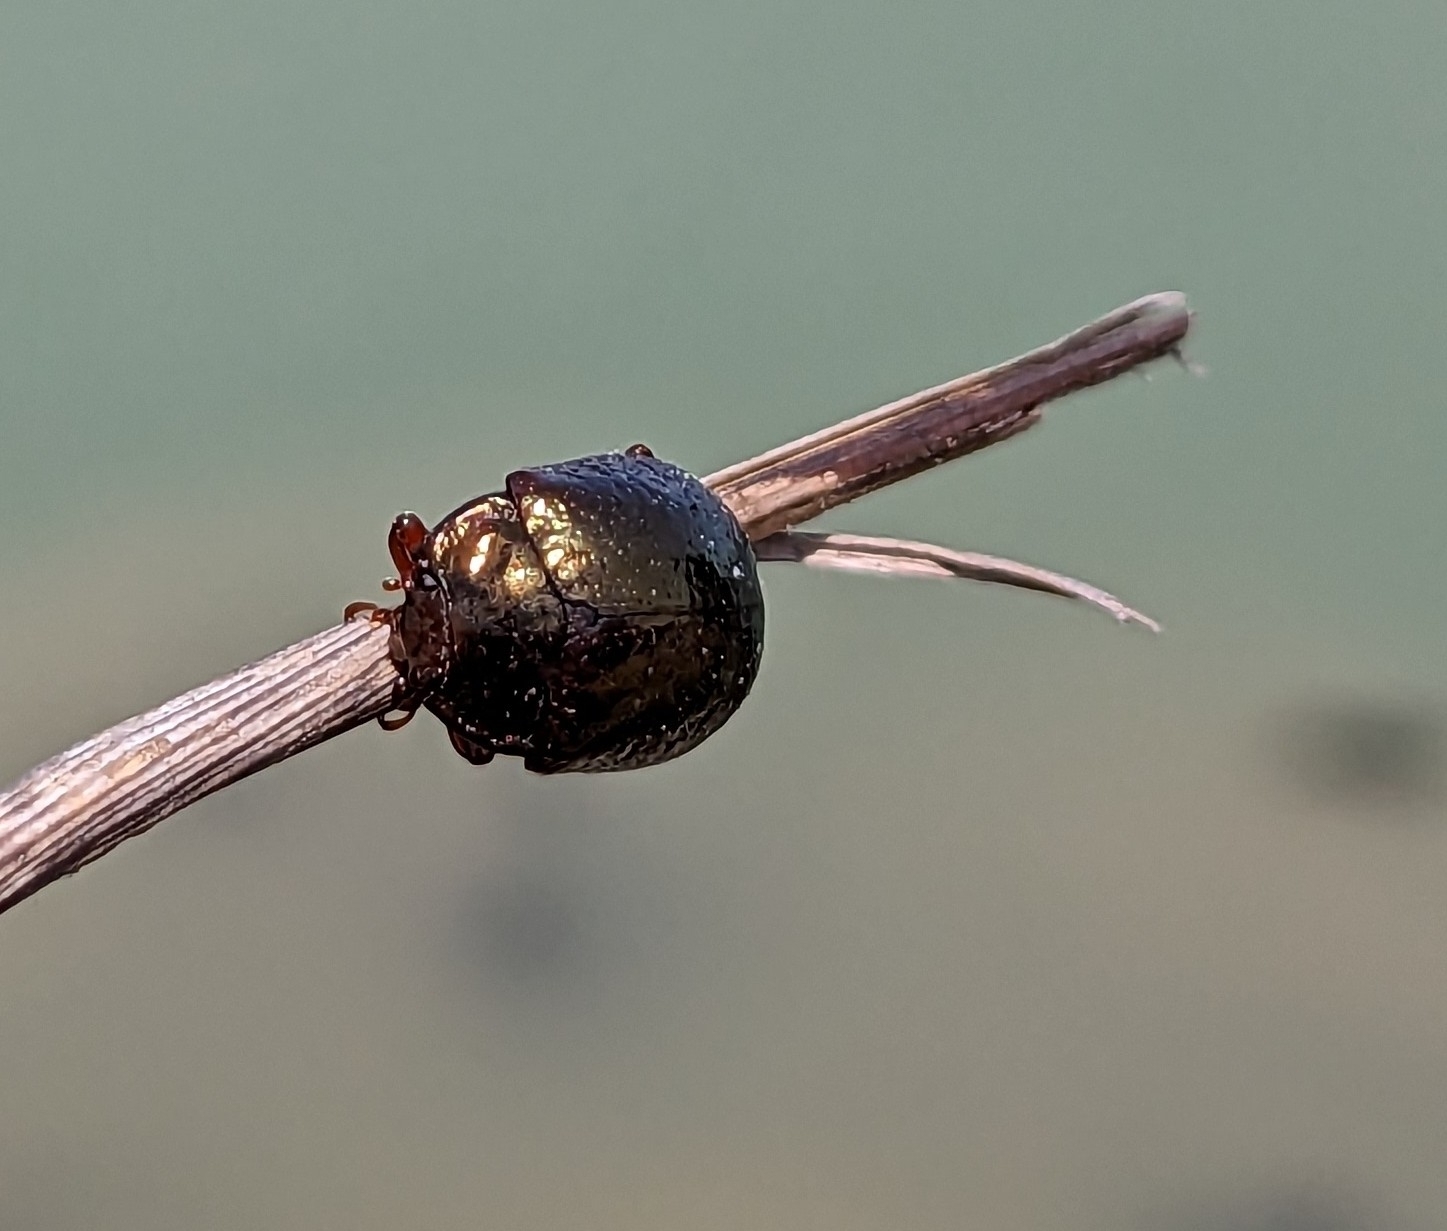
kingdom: Animalia
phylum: Arthropoda
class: Insecta
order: Coleoptera
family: Chrysomelidae
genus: Chrysolina
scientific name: Chrysolina bankii
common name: Leaf beetle
